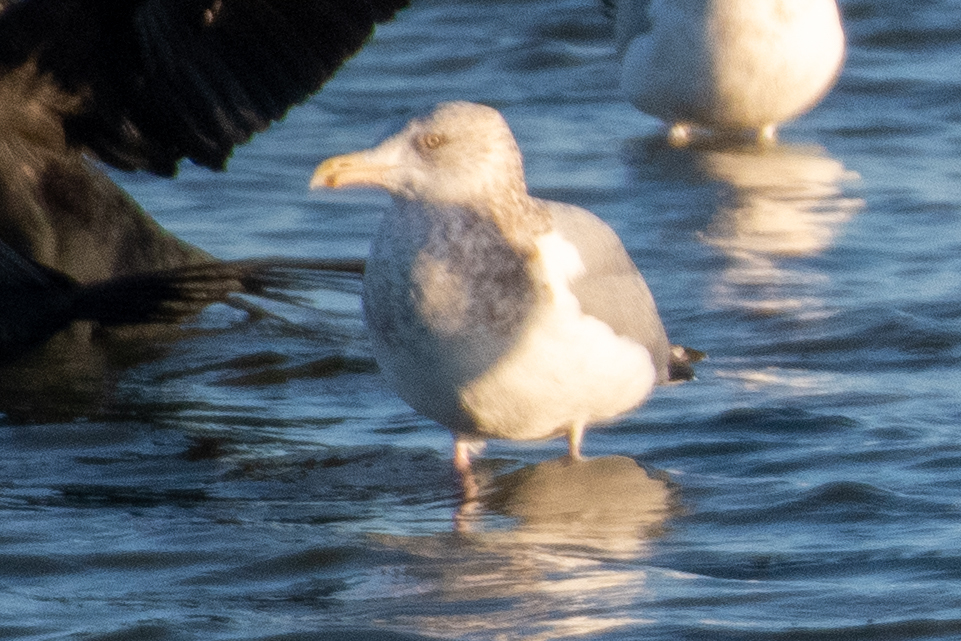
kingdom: Animalia
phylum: Chordata
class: Aves
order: Charadriiformes
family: Laridae
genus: Larus
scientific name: Larus argentatus
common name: Herring gull
